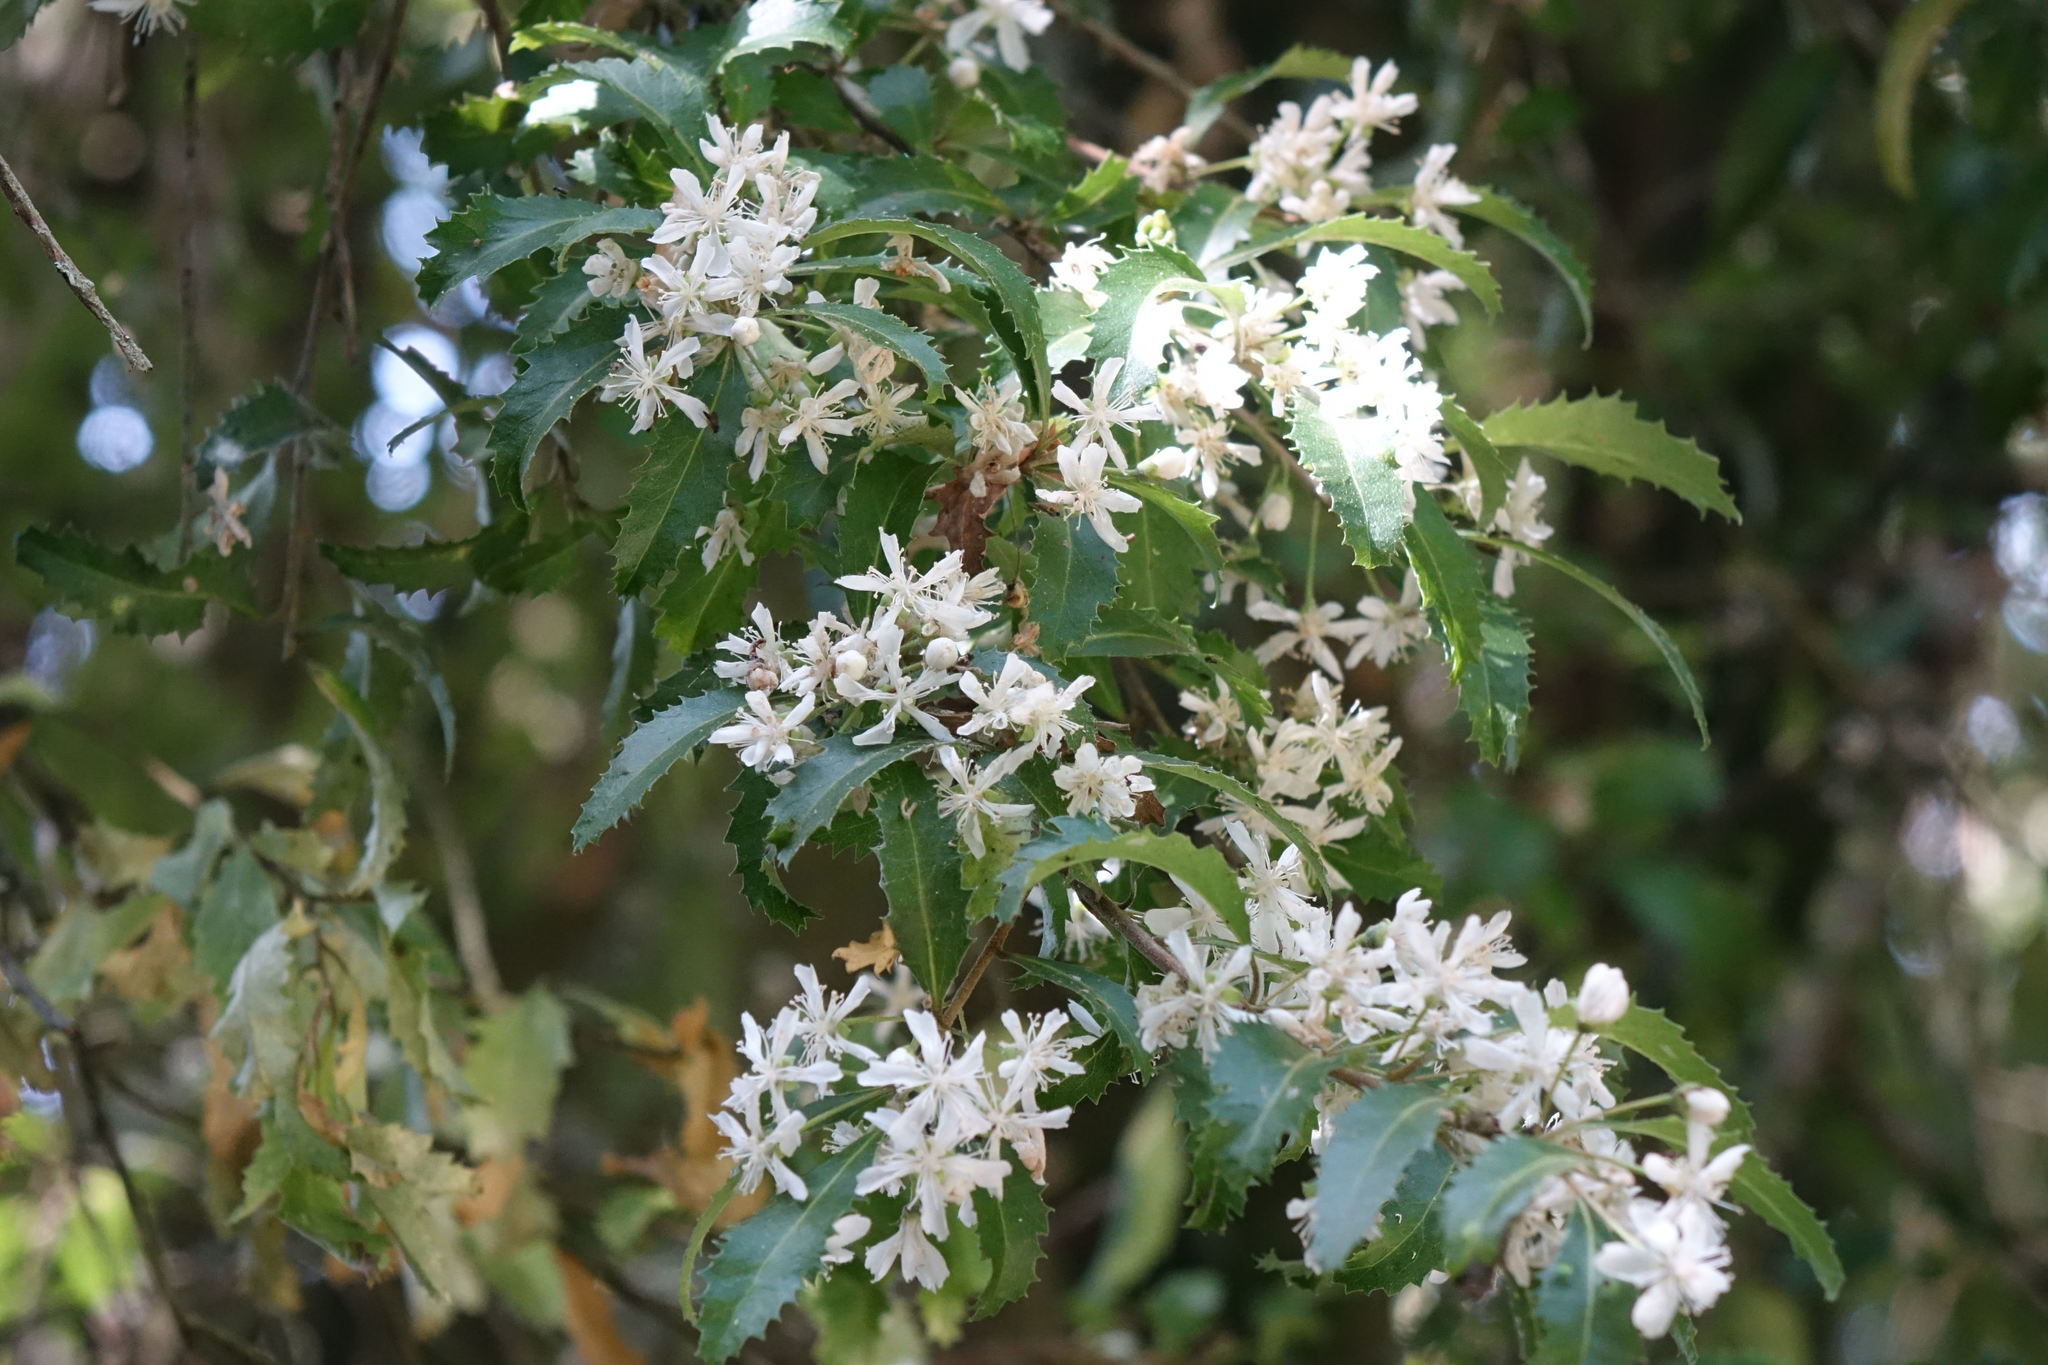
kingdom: Plantae
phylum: Tracheophyta
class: Magnoliopsida
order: Malvales
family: Malvaceae
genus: Hoheria
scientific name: Hoheria angustifolia
